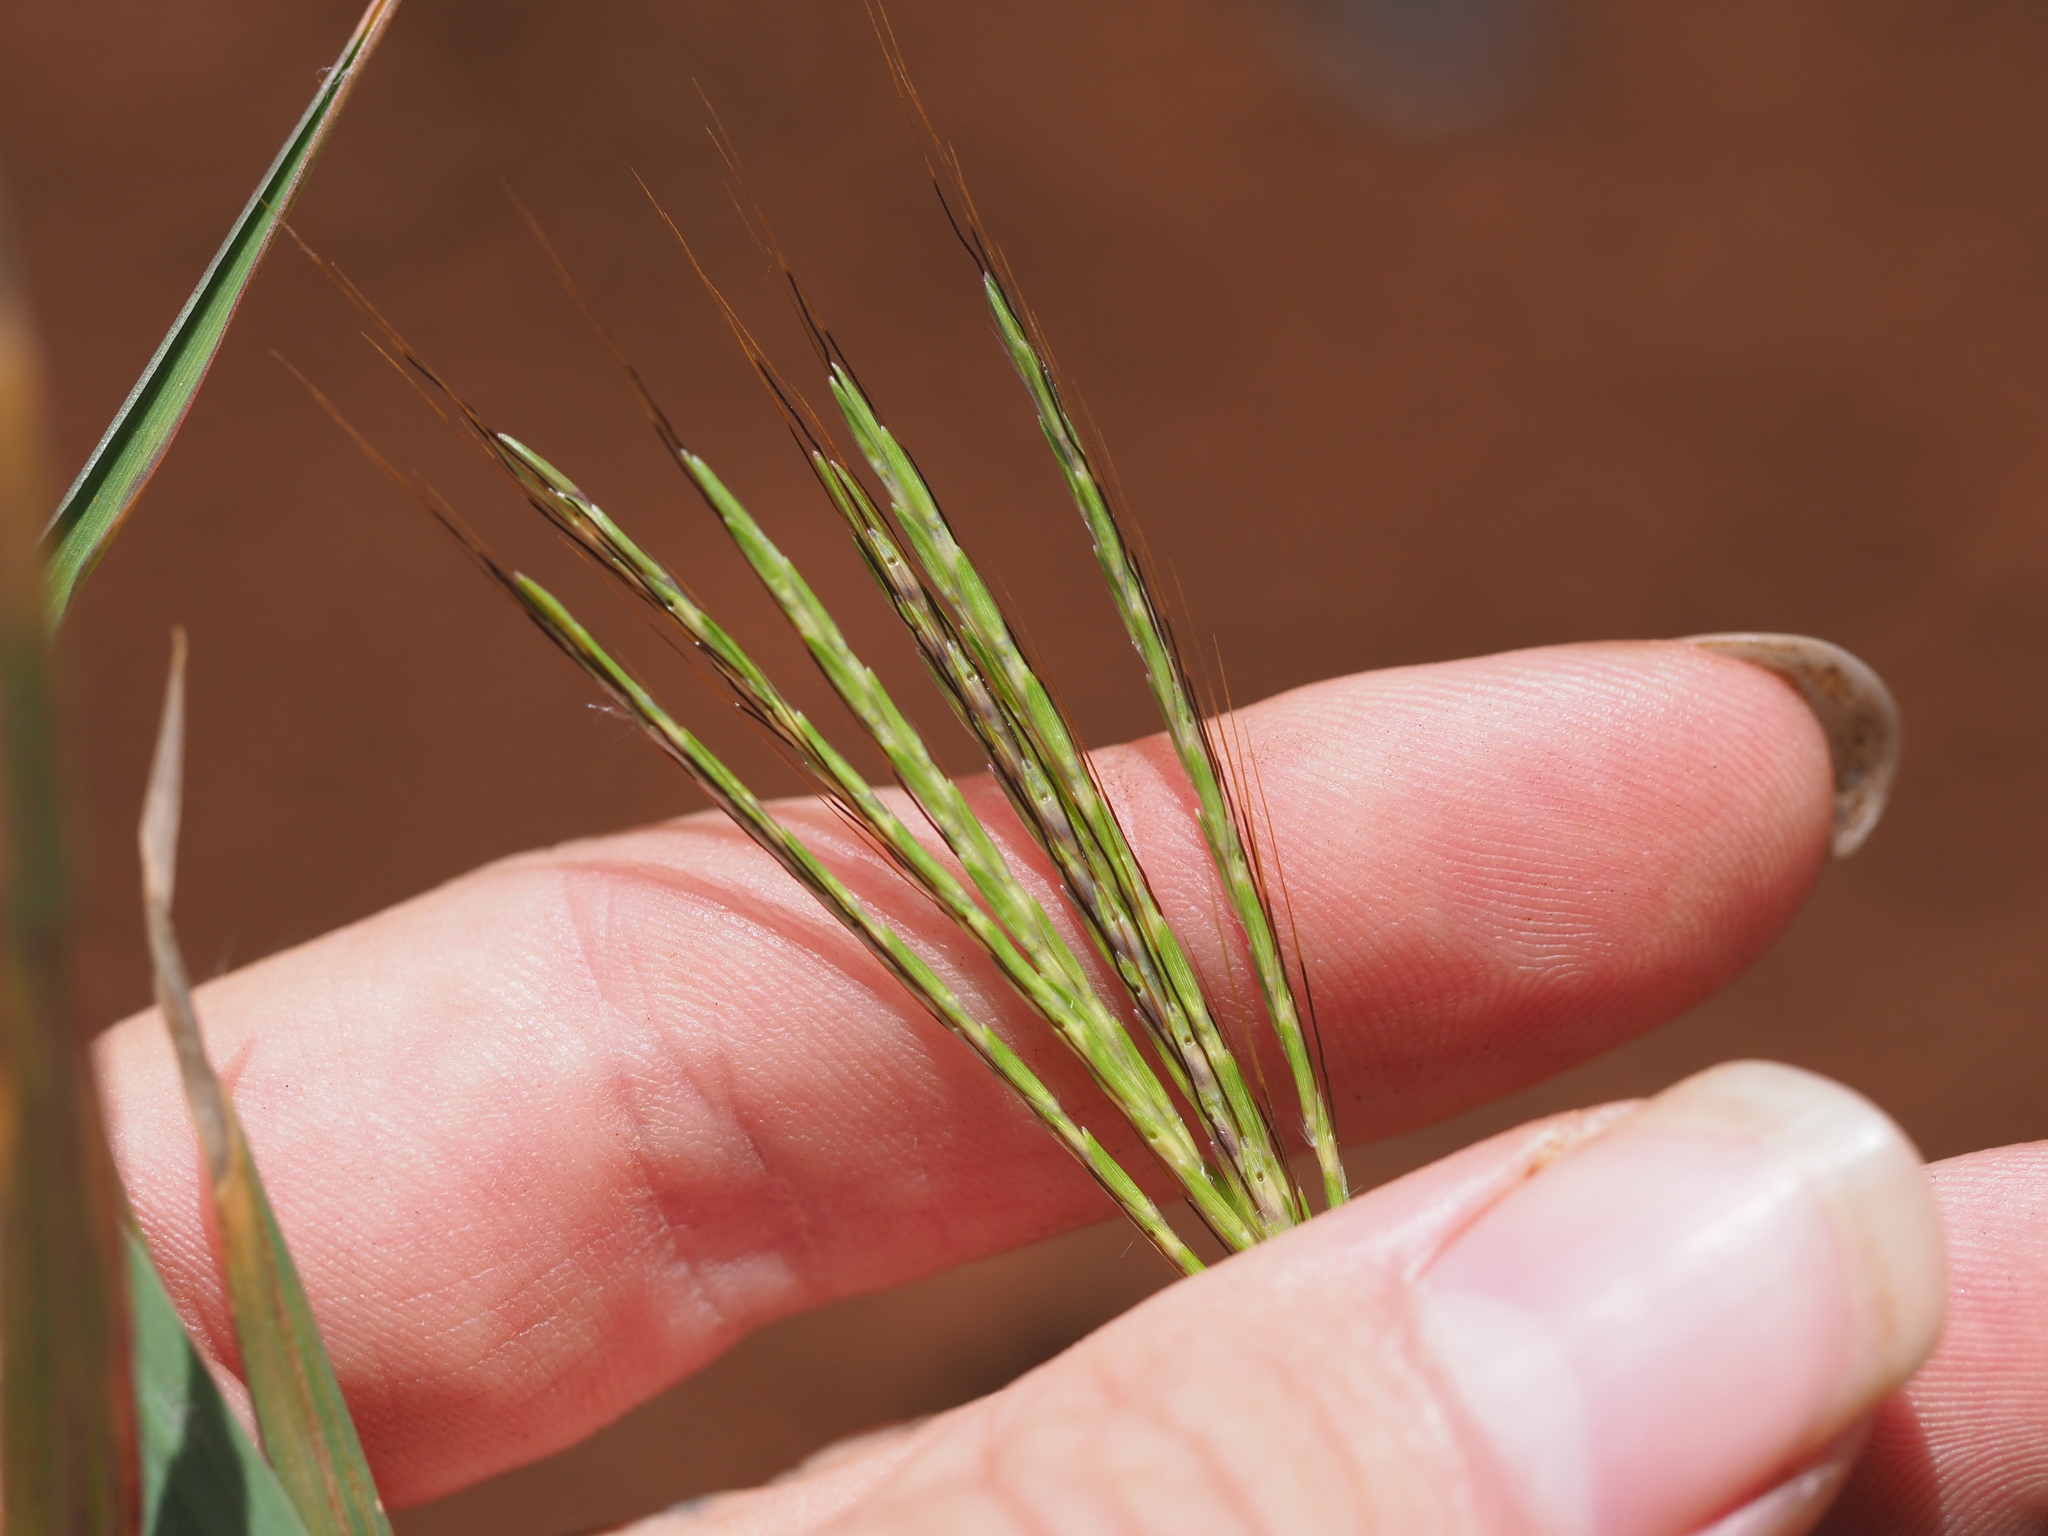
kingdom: Plantae
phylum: Tracheophyta
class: Liliopsida
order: Poales
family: Poaceae
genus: Bothriochloa
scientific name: Bothriochloa pertusa
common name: Pitted beardgrass
